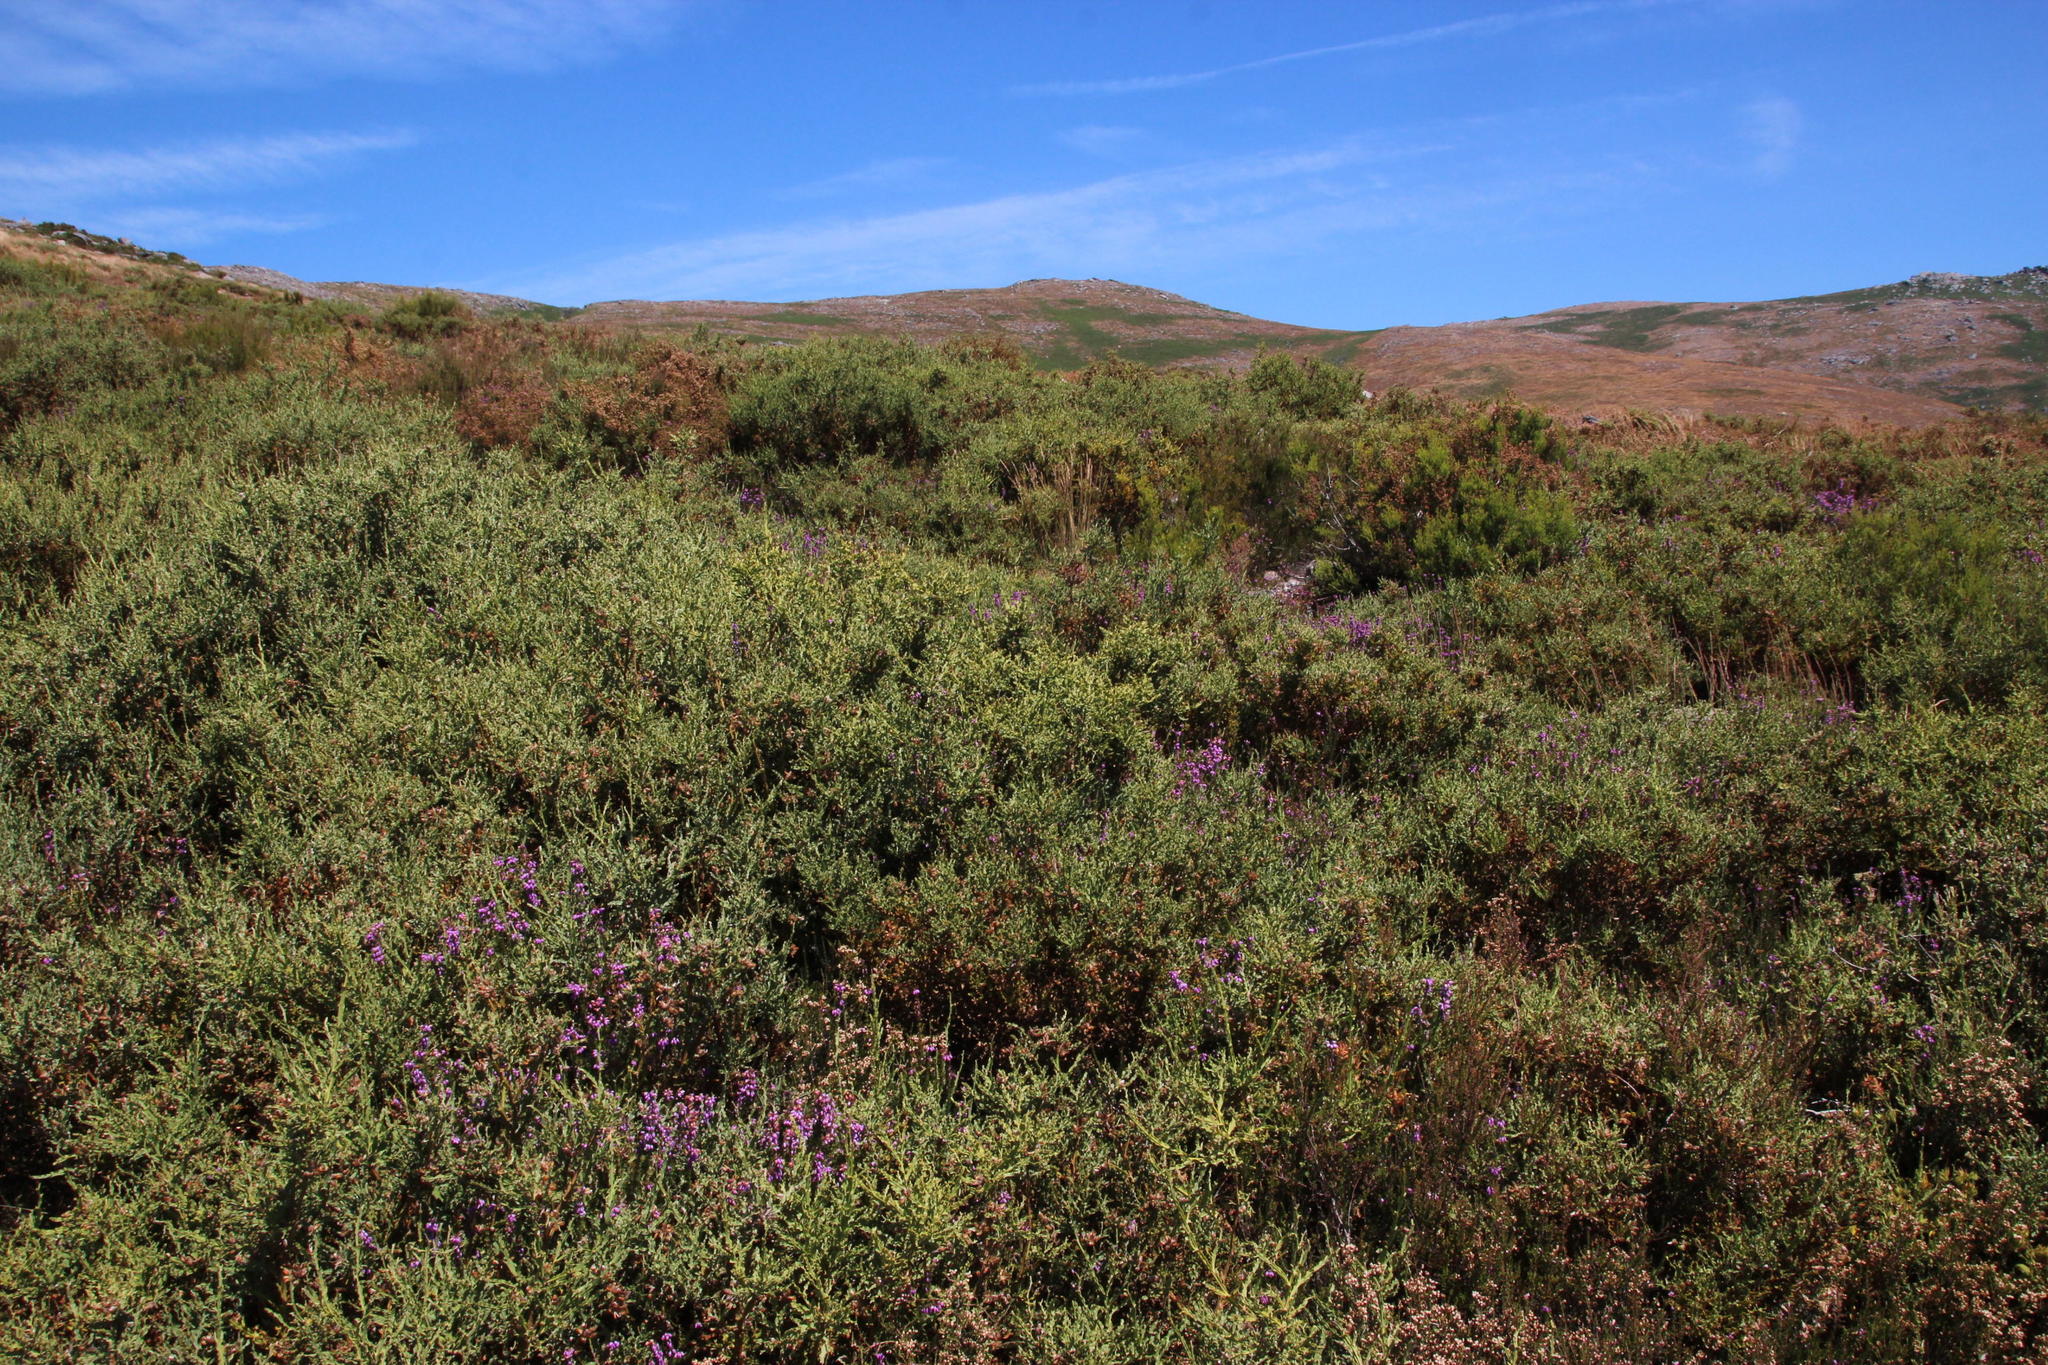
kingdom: Plantae
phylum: Tracheophyta
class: Magnoliopsida
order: Fabales
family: Fabaceae
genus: Genista
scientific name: Genista tridentata
